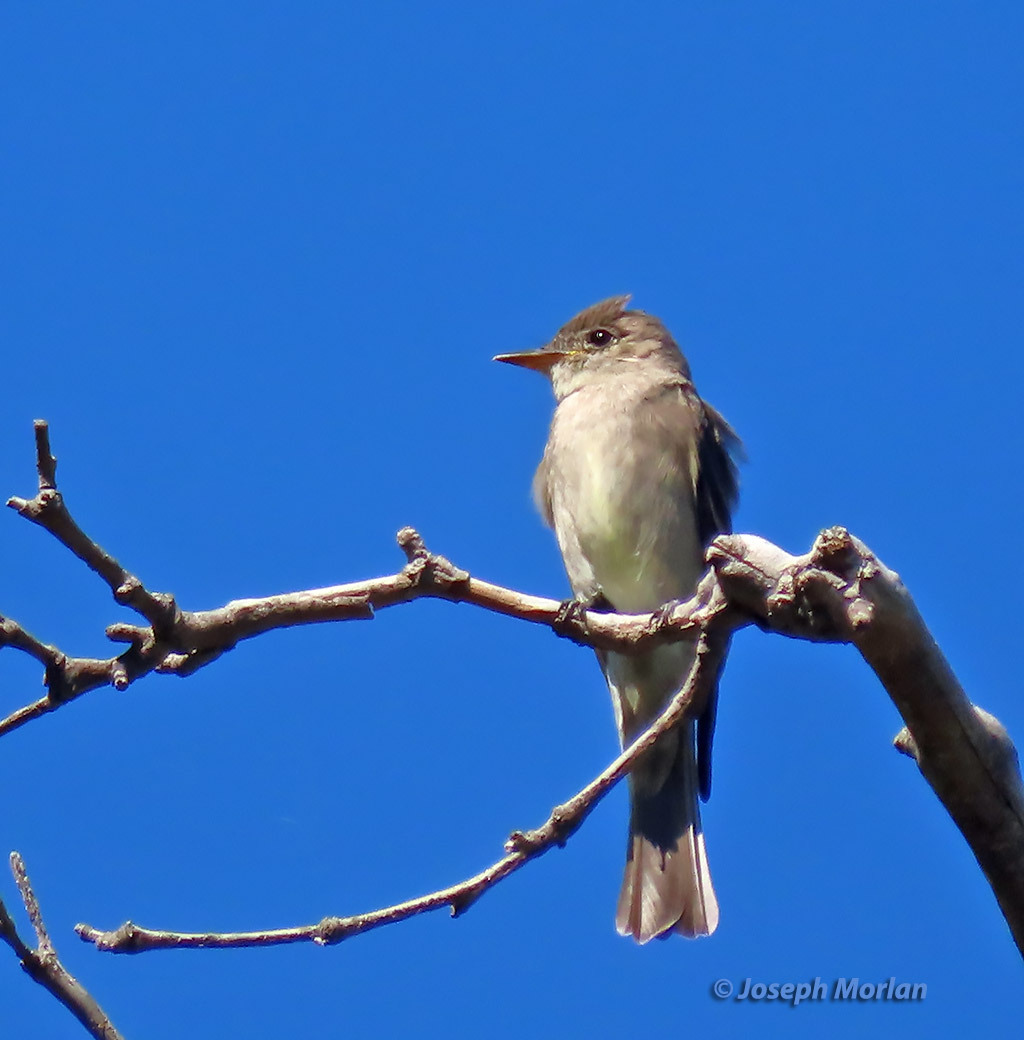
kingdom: Animalia
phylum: Chordata
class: Aves
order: Passeriformes
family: Tyrannidae
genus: Contopus
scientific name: Contopus sordidulus
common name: Western wood-pewee
